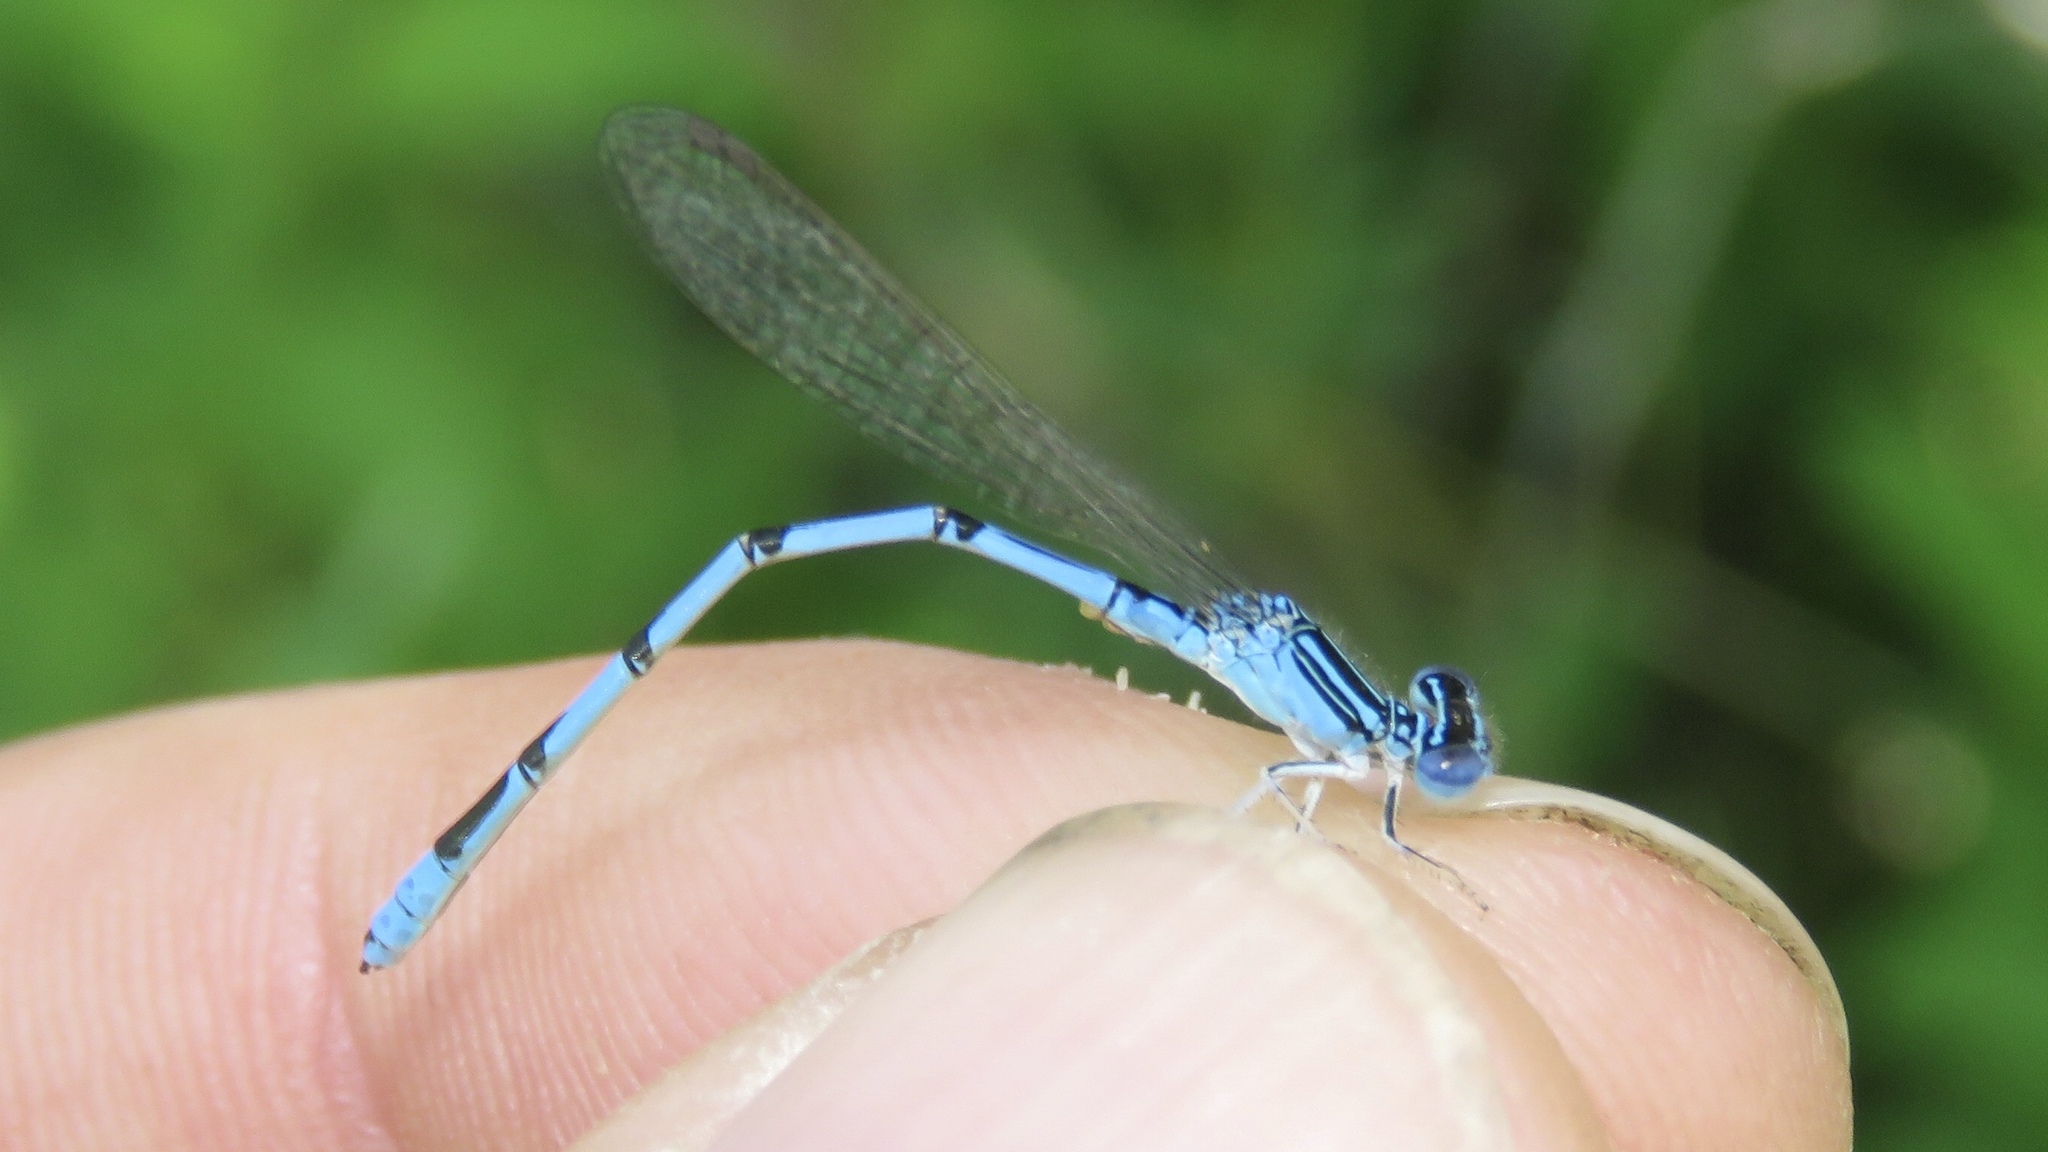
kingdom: Animalia
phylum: Arthropoda
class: Insecta
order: Odonata
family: Coenagrionidae
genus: Enallagma
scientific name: Enallagma basidens
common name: Double-striped bluet
